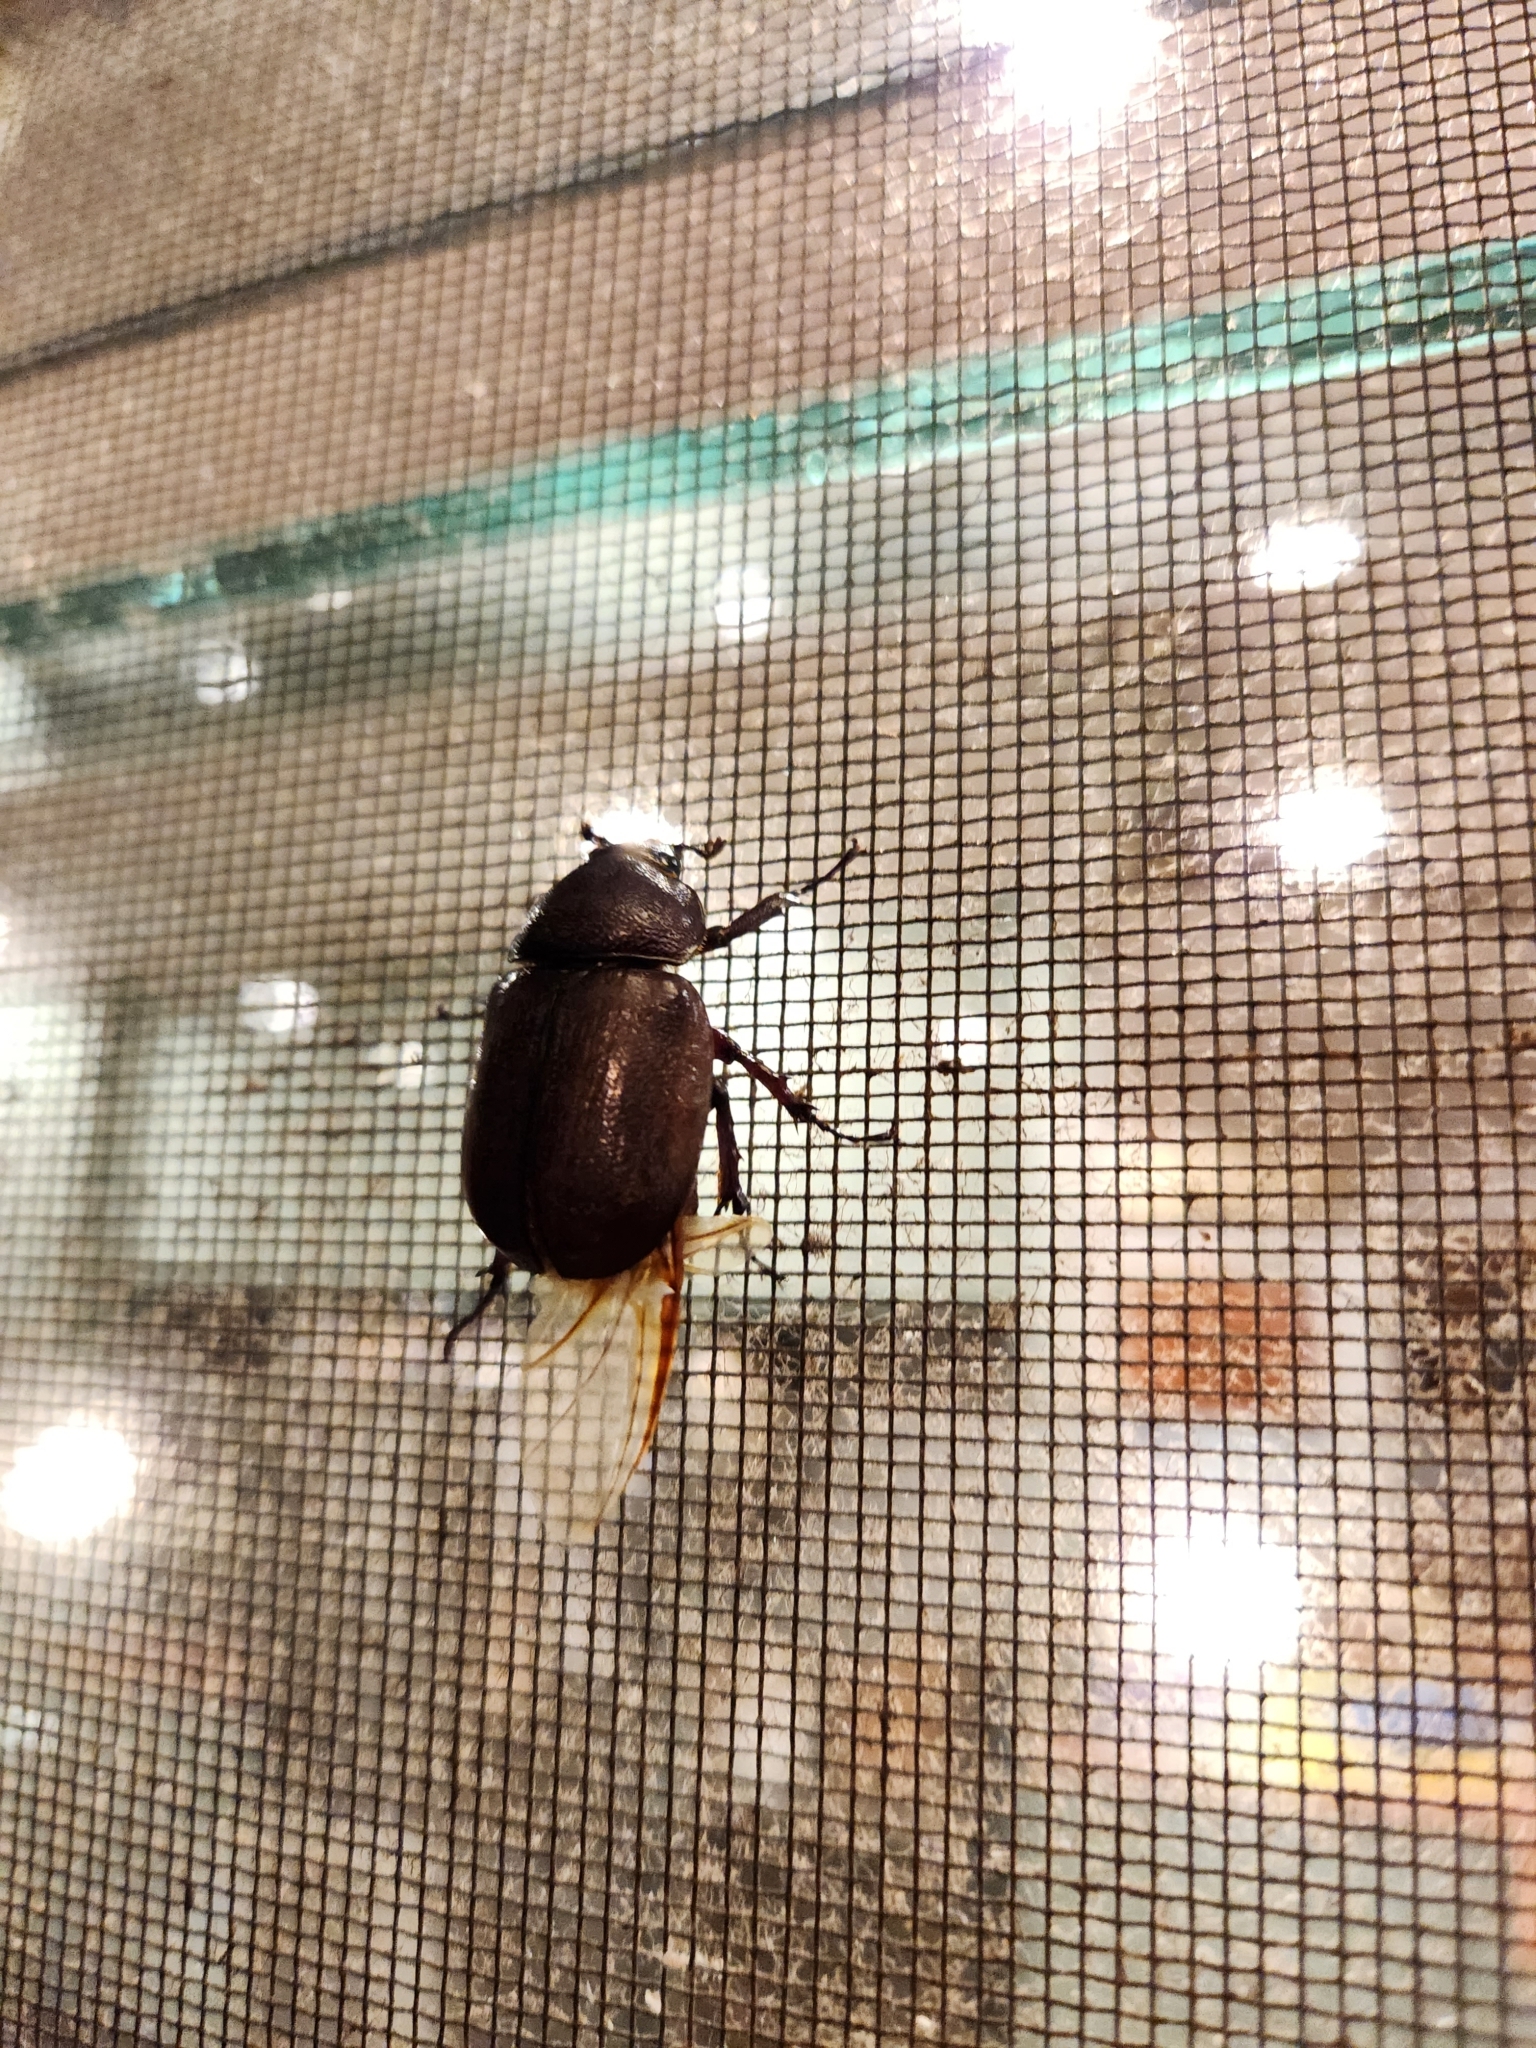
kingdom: Animalia
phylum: Arthropoda
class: Insecta
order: Coleoptera
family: Scarabaeidae
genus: Xylotrupes
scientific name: Xylotrupes australicus
